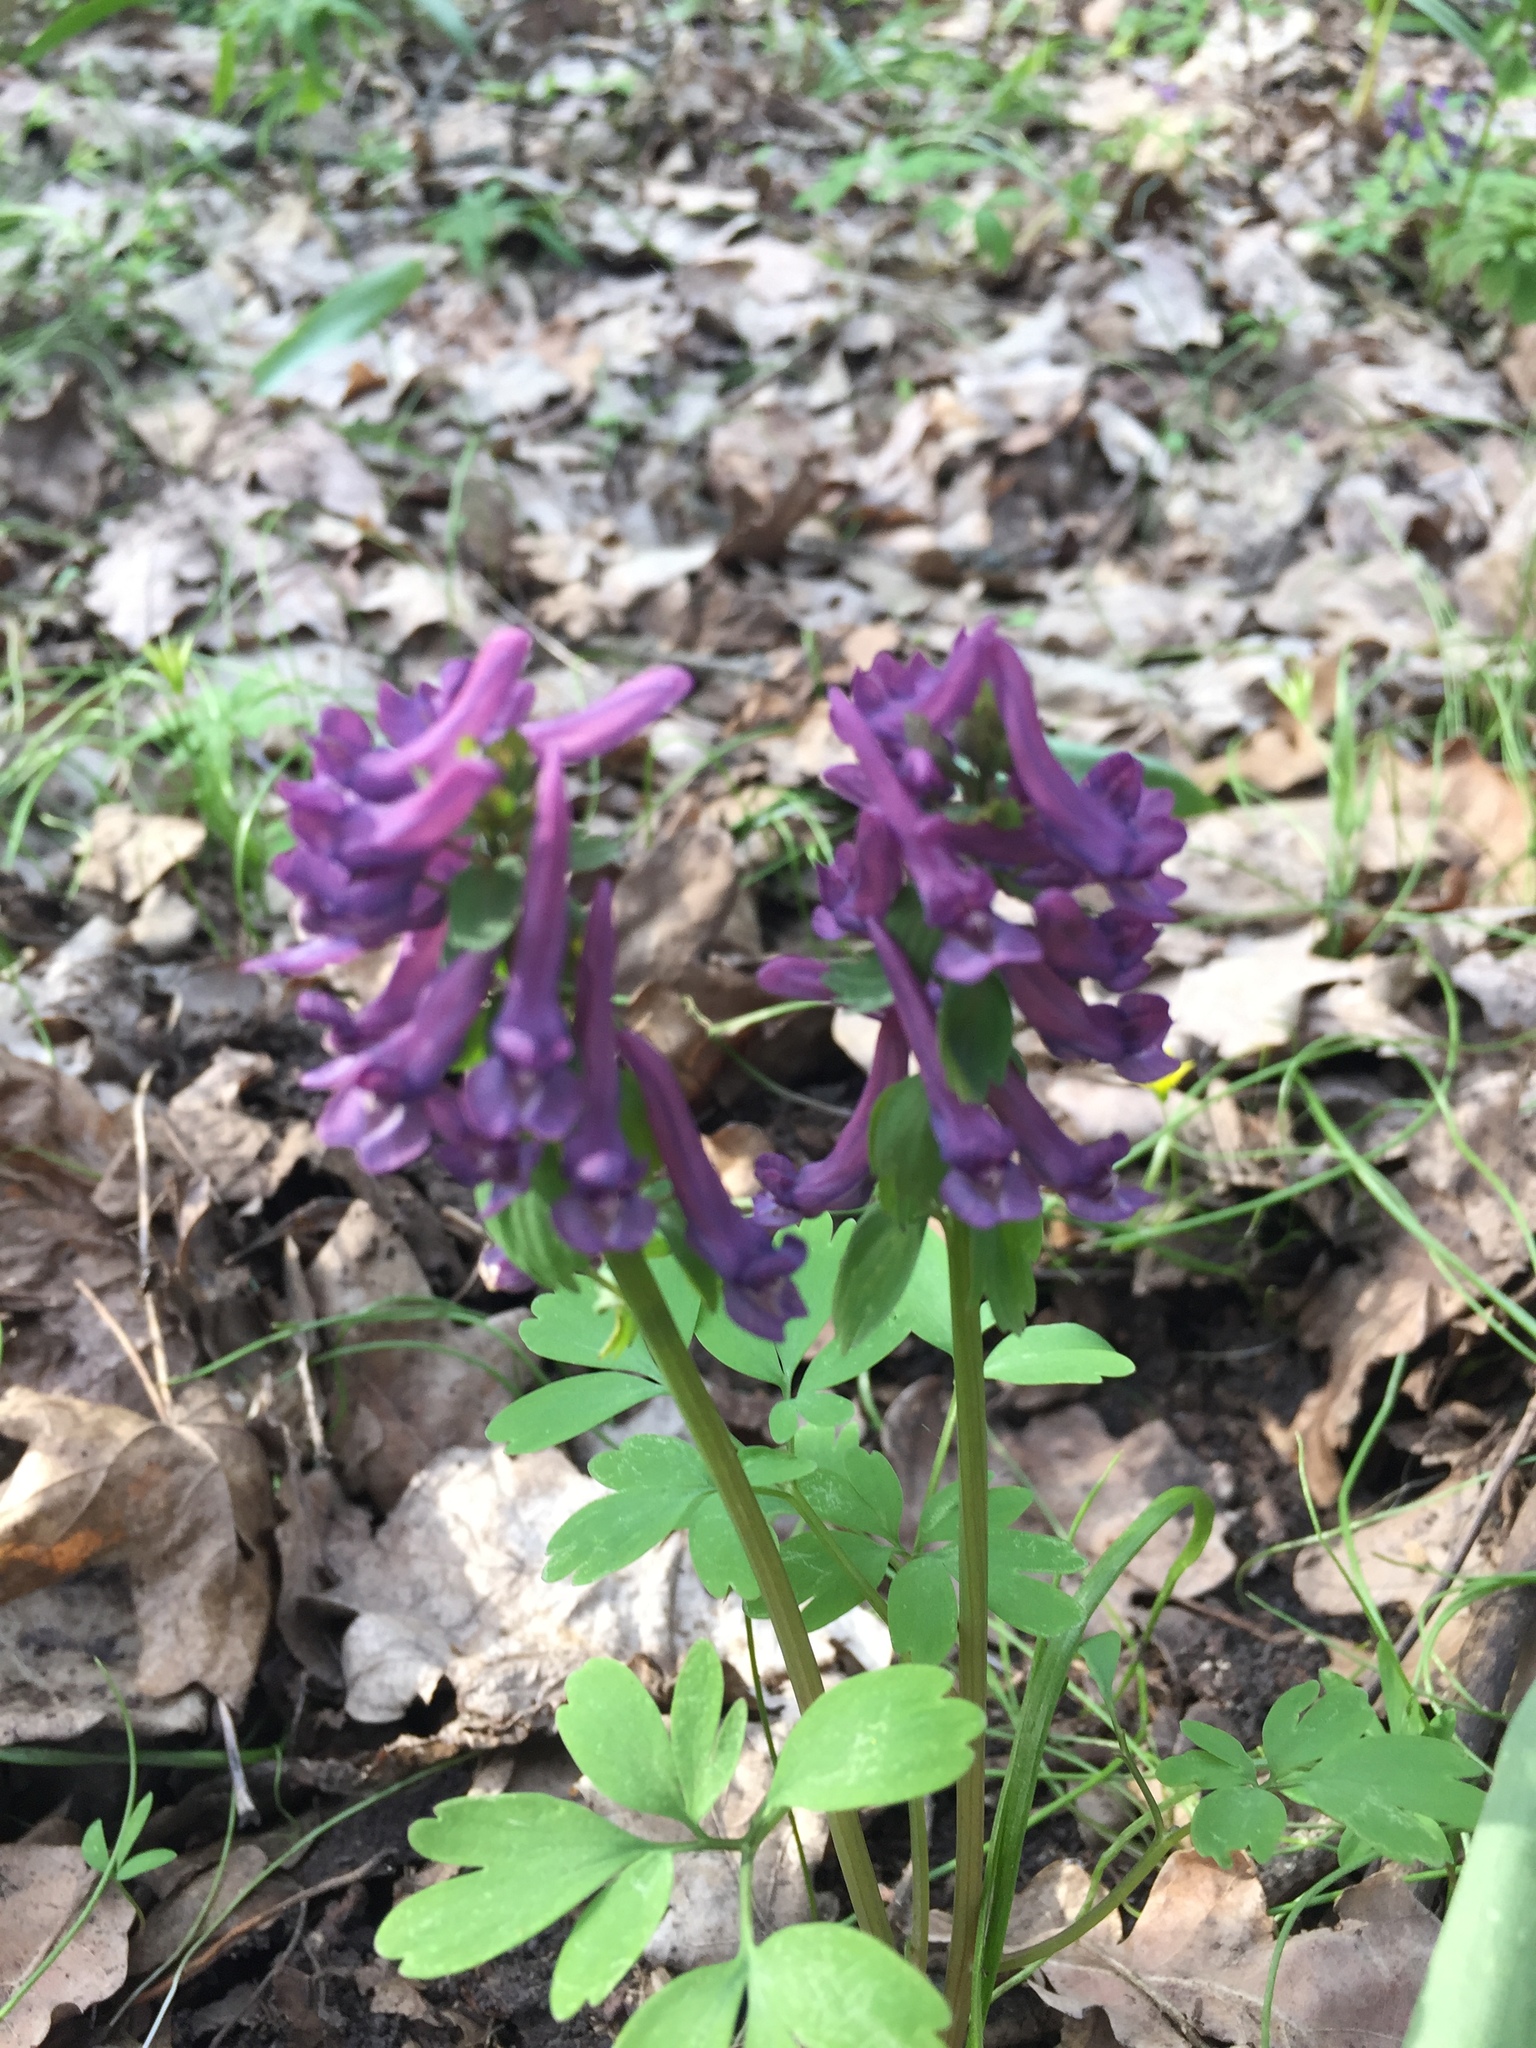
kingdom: Plantae
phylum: Tracheophyta
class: Magnoliopsida
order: Ranunculales
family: Papaveraceae
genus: Corydalis
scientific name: Corydalis solida
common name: Bird-in-a-bush
